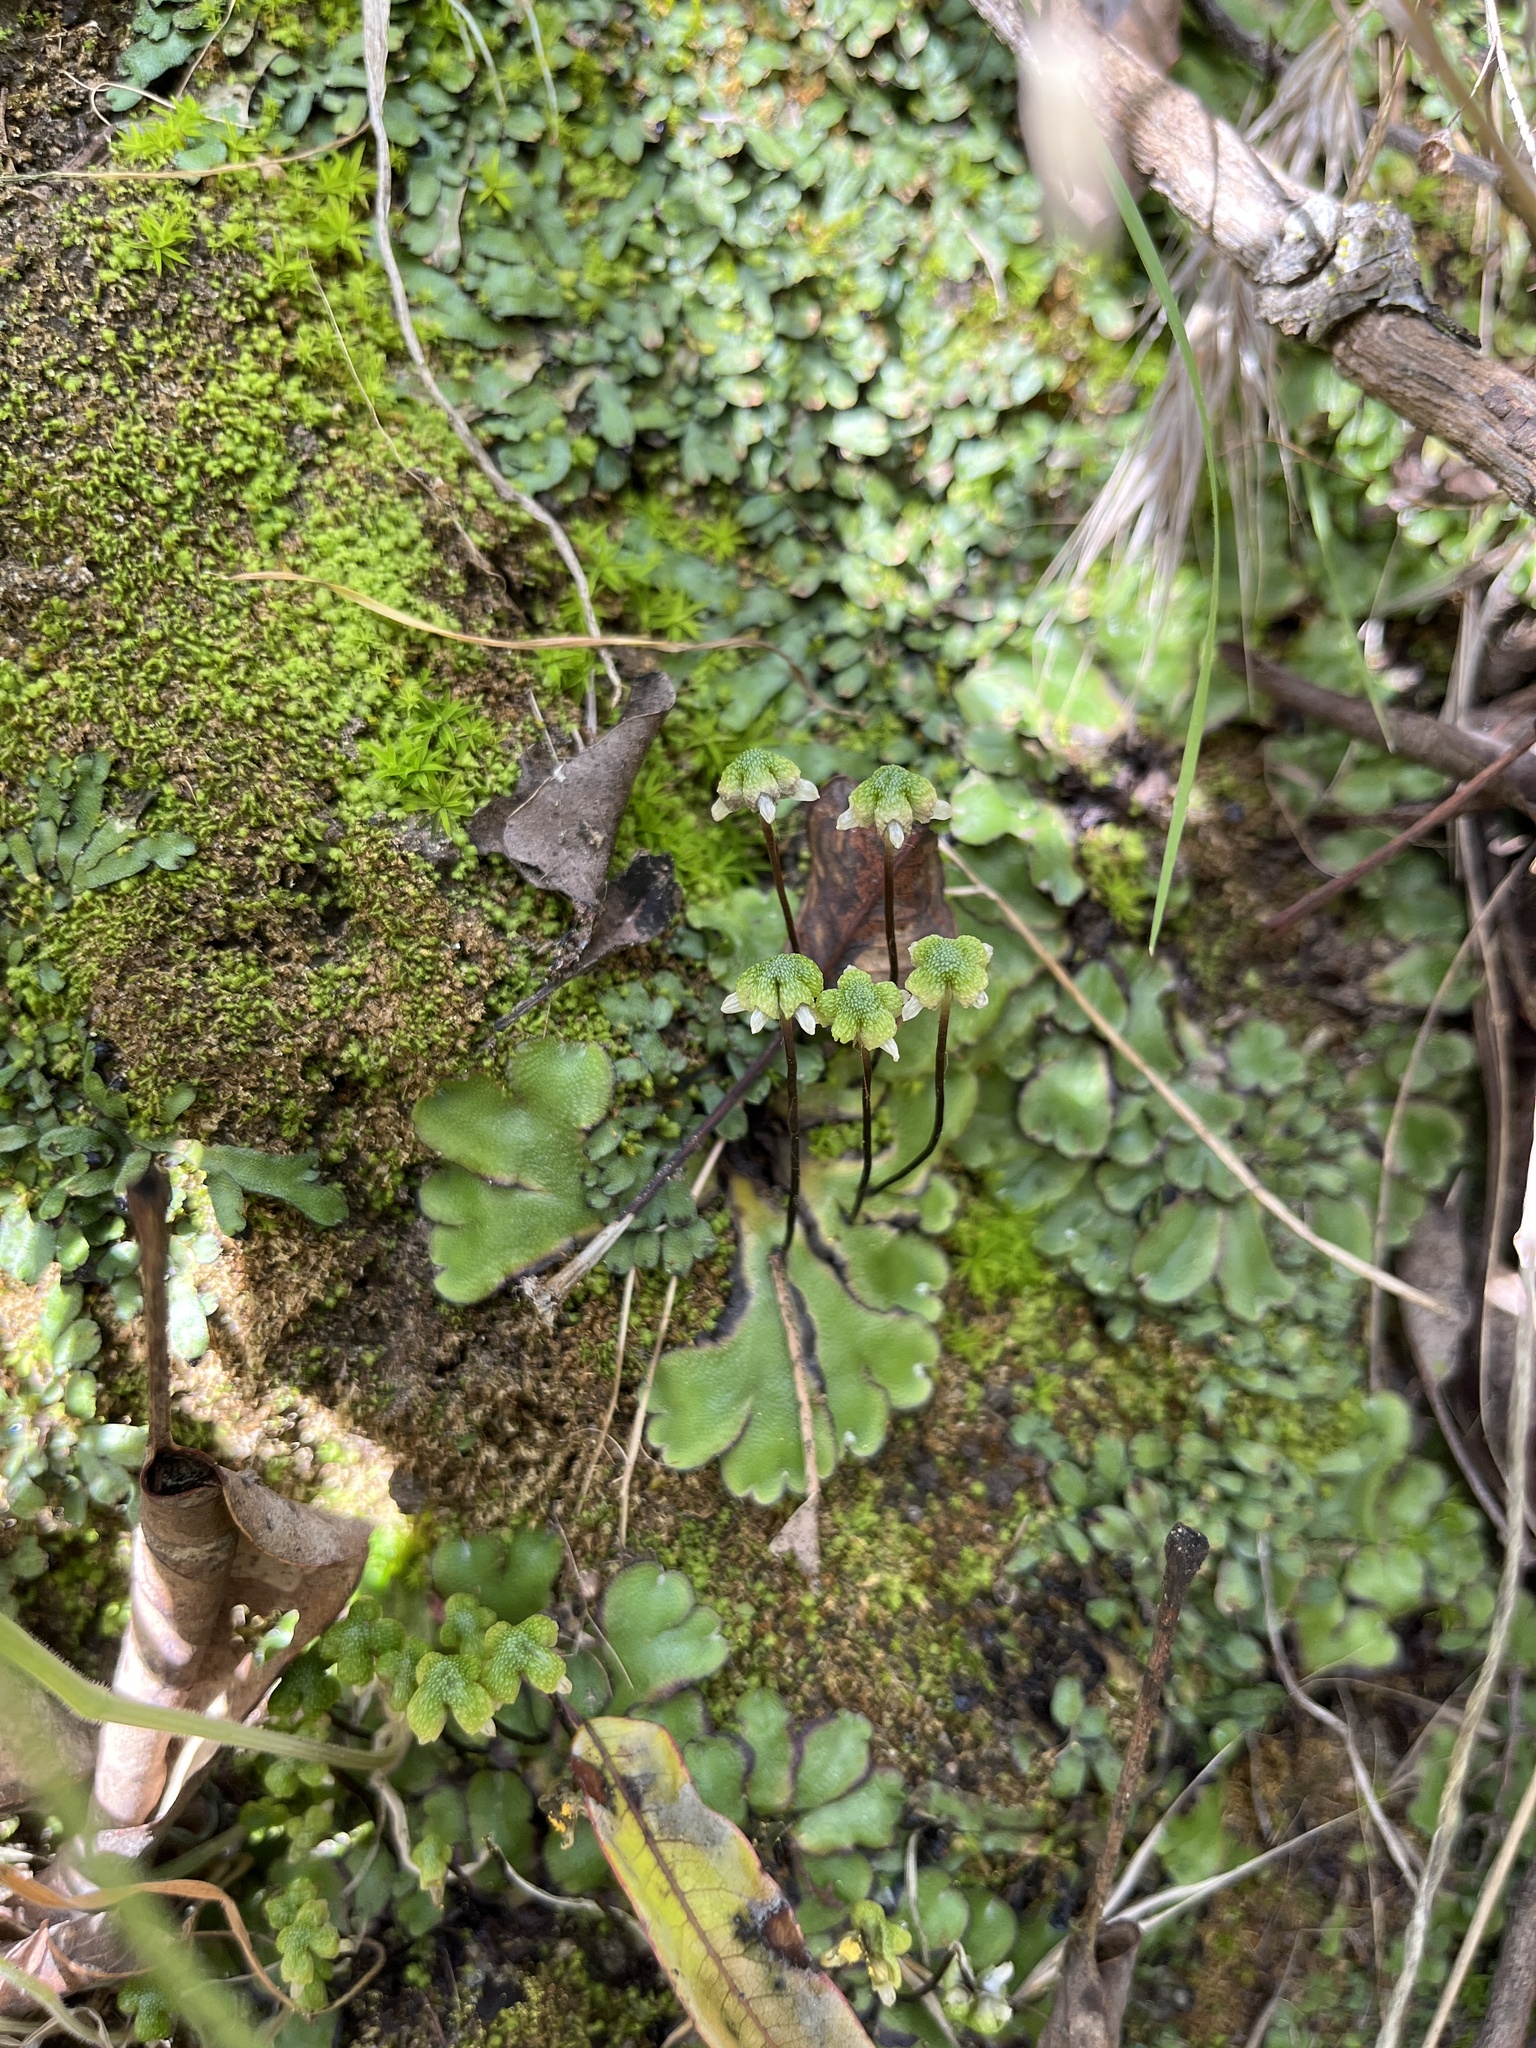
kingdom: Plantae
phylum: Marchantiophyta
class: Marchantiopsida
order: Marchantiales
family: Aytoniaceae
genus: Asterella
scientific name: Asterella californica
